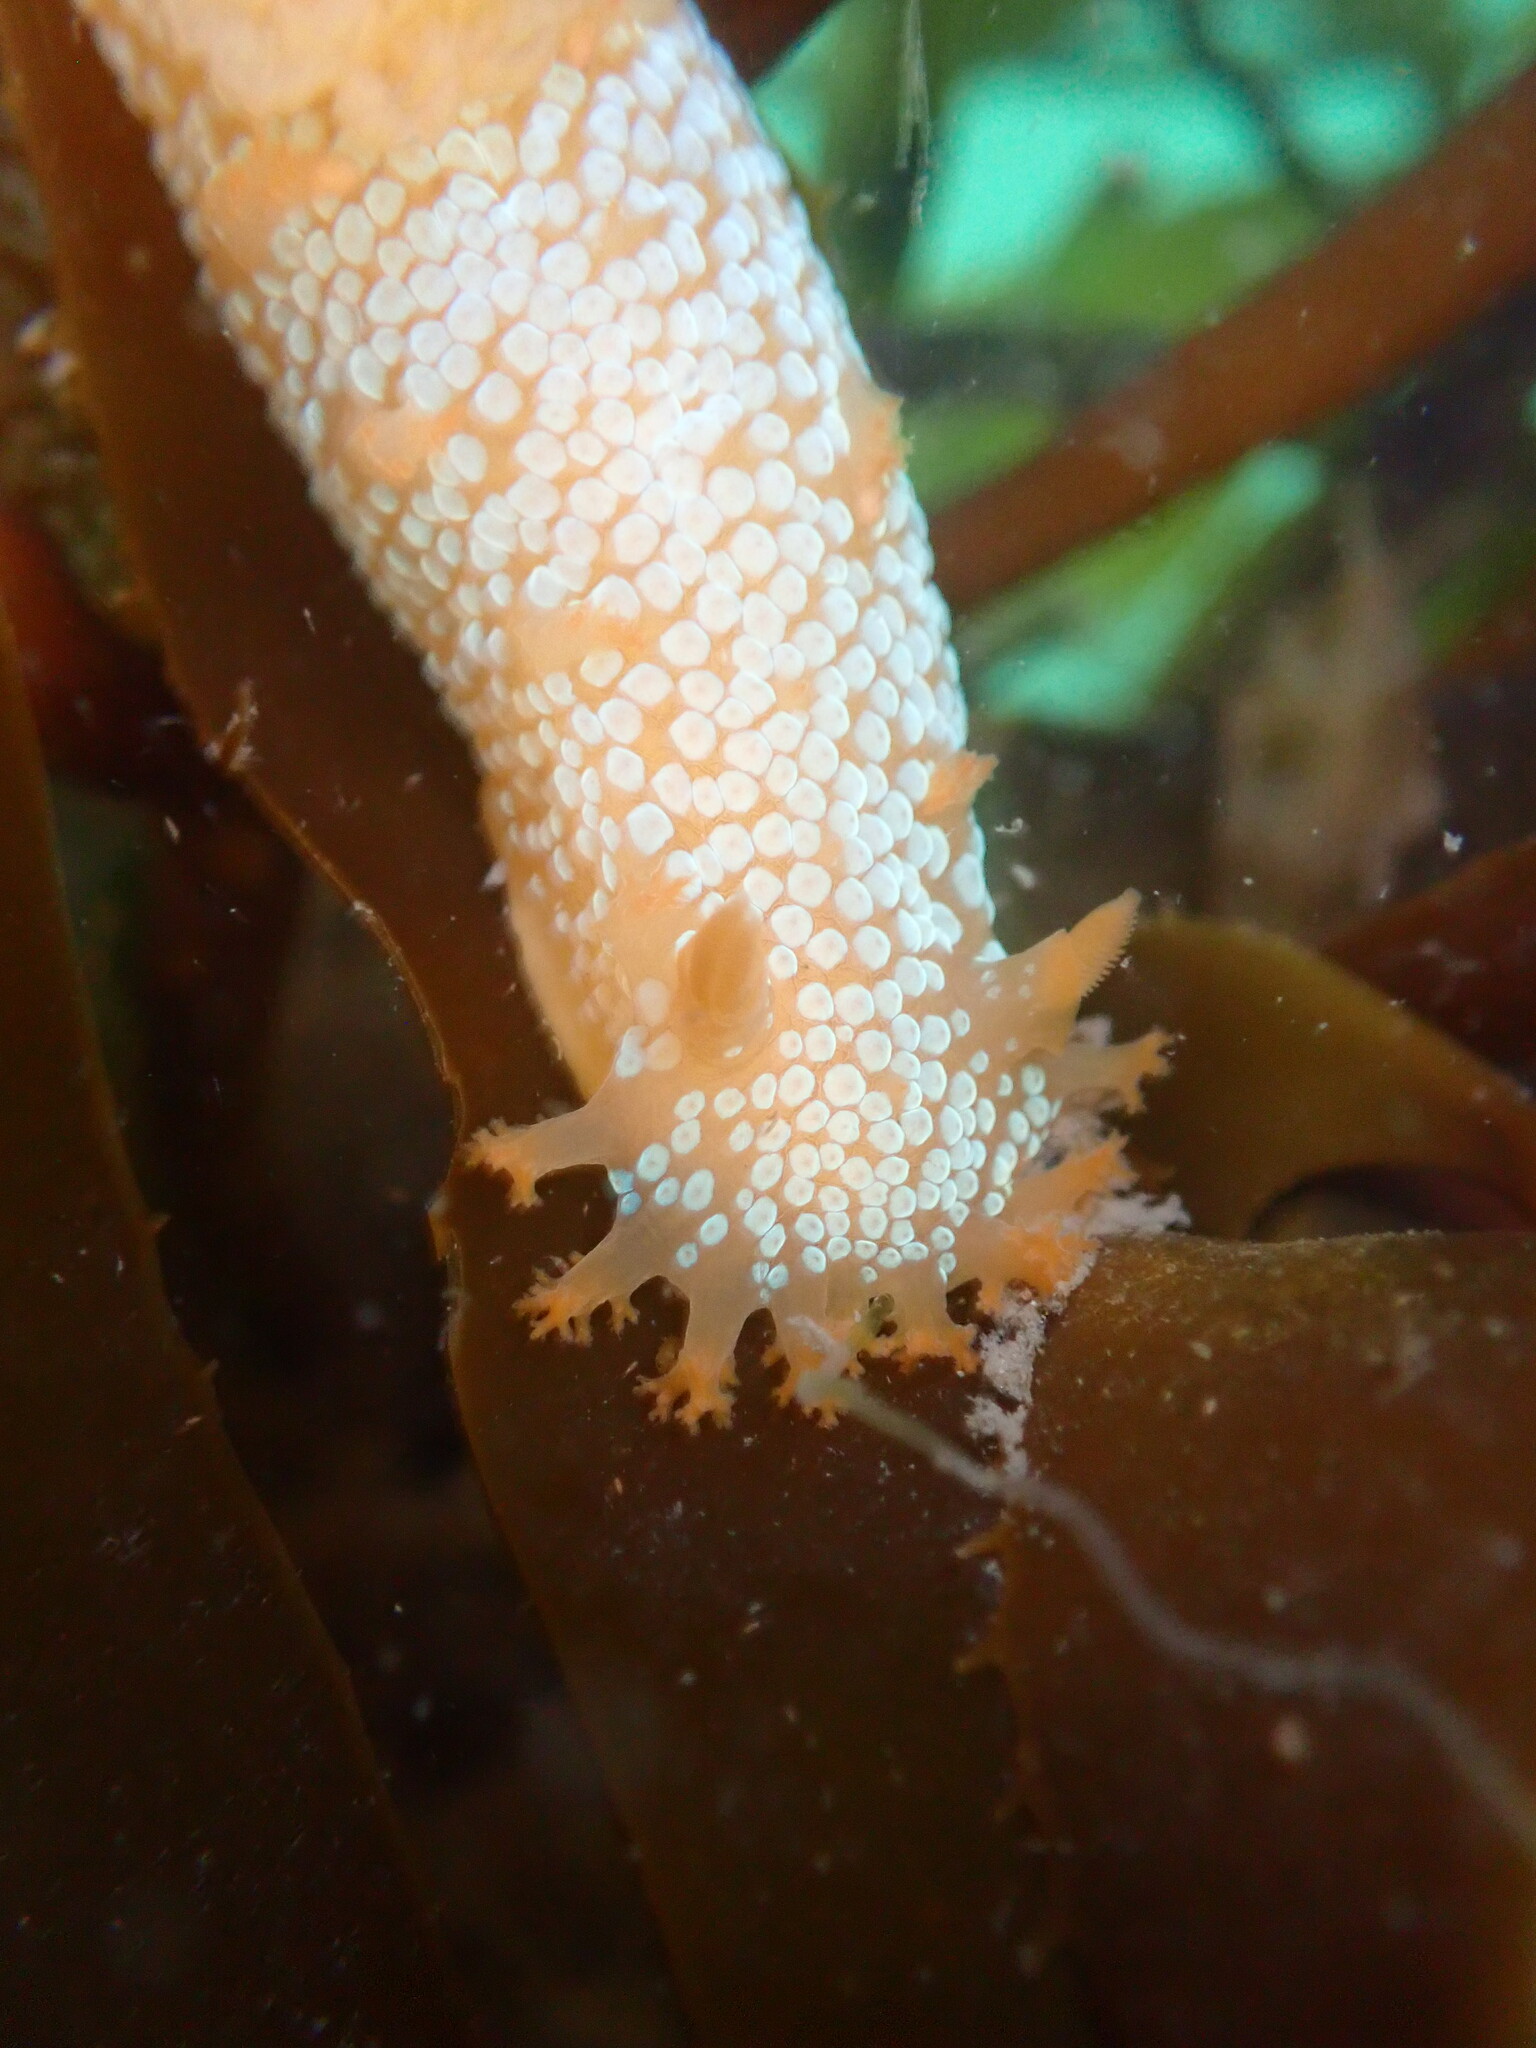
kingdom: Animalia
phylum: Mollusca
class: Gastropoda
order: Nudibranchia
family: Polyceridae
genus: Triopha
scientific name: Triopha maculata
